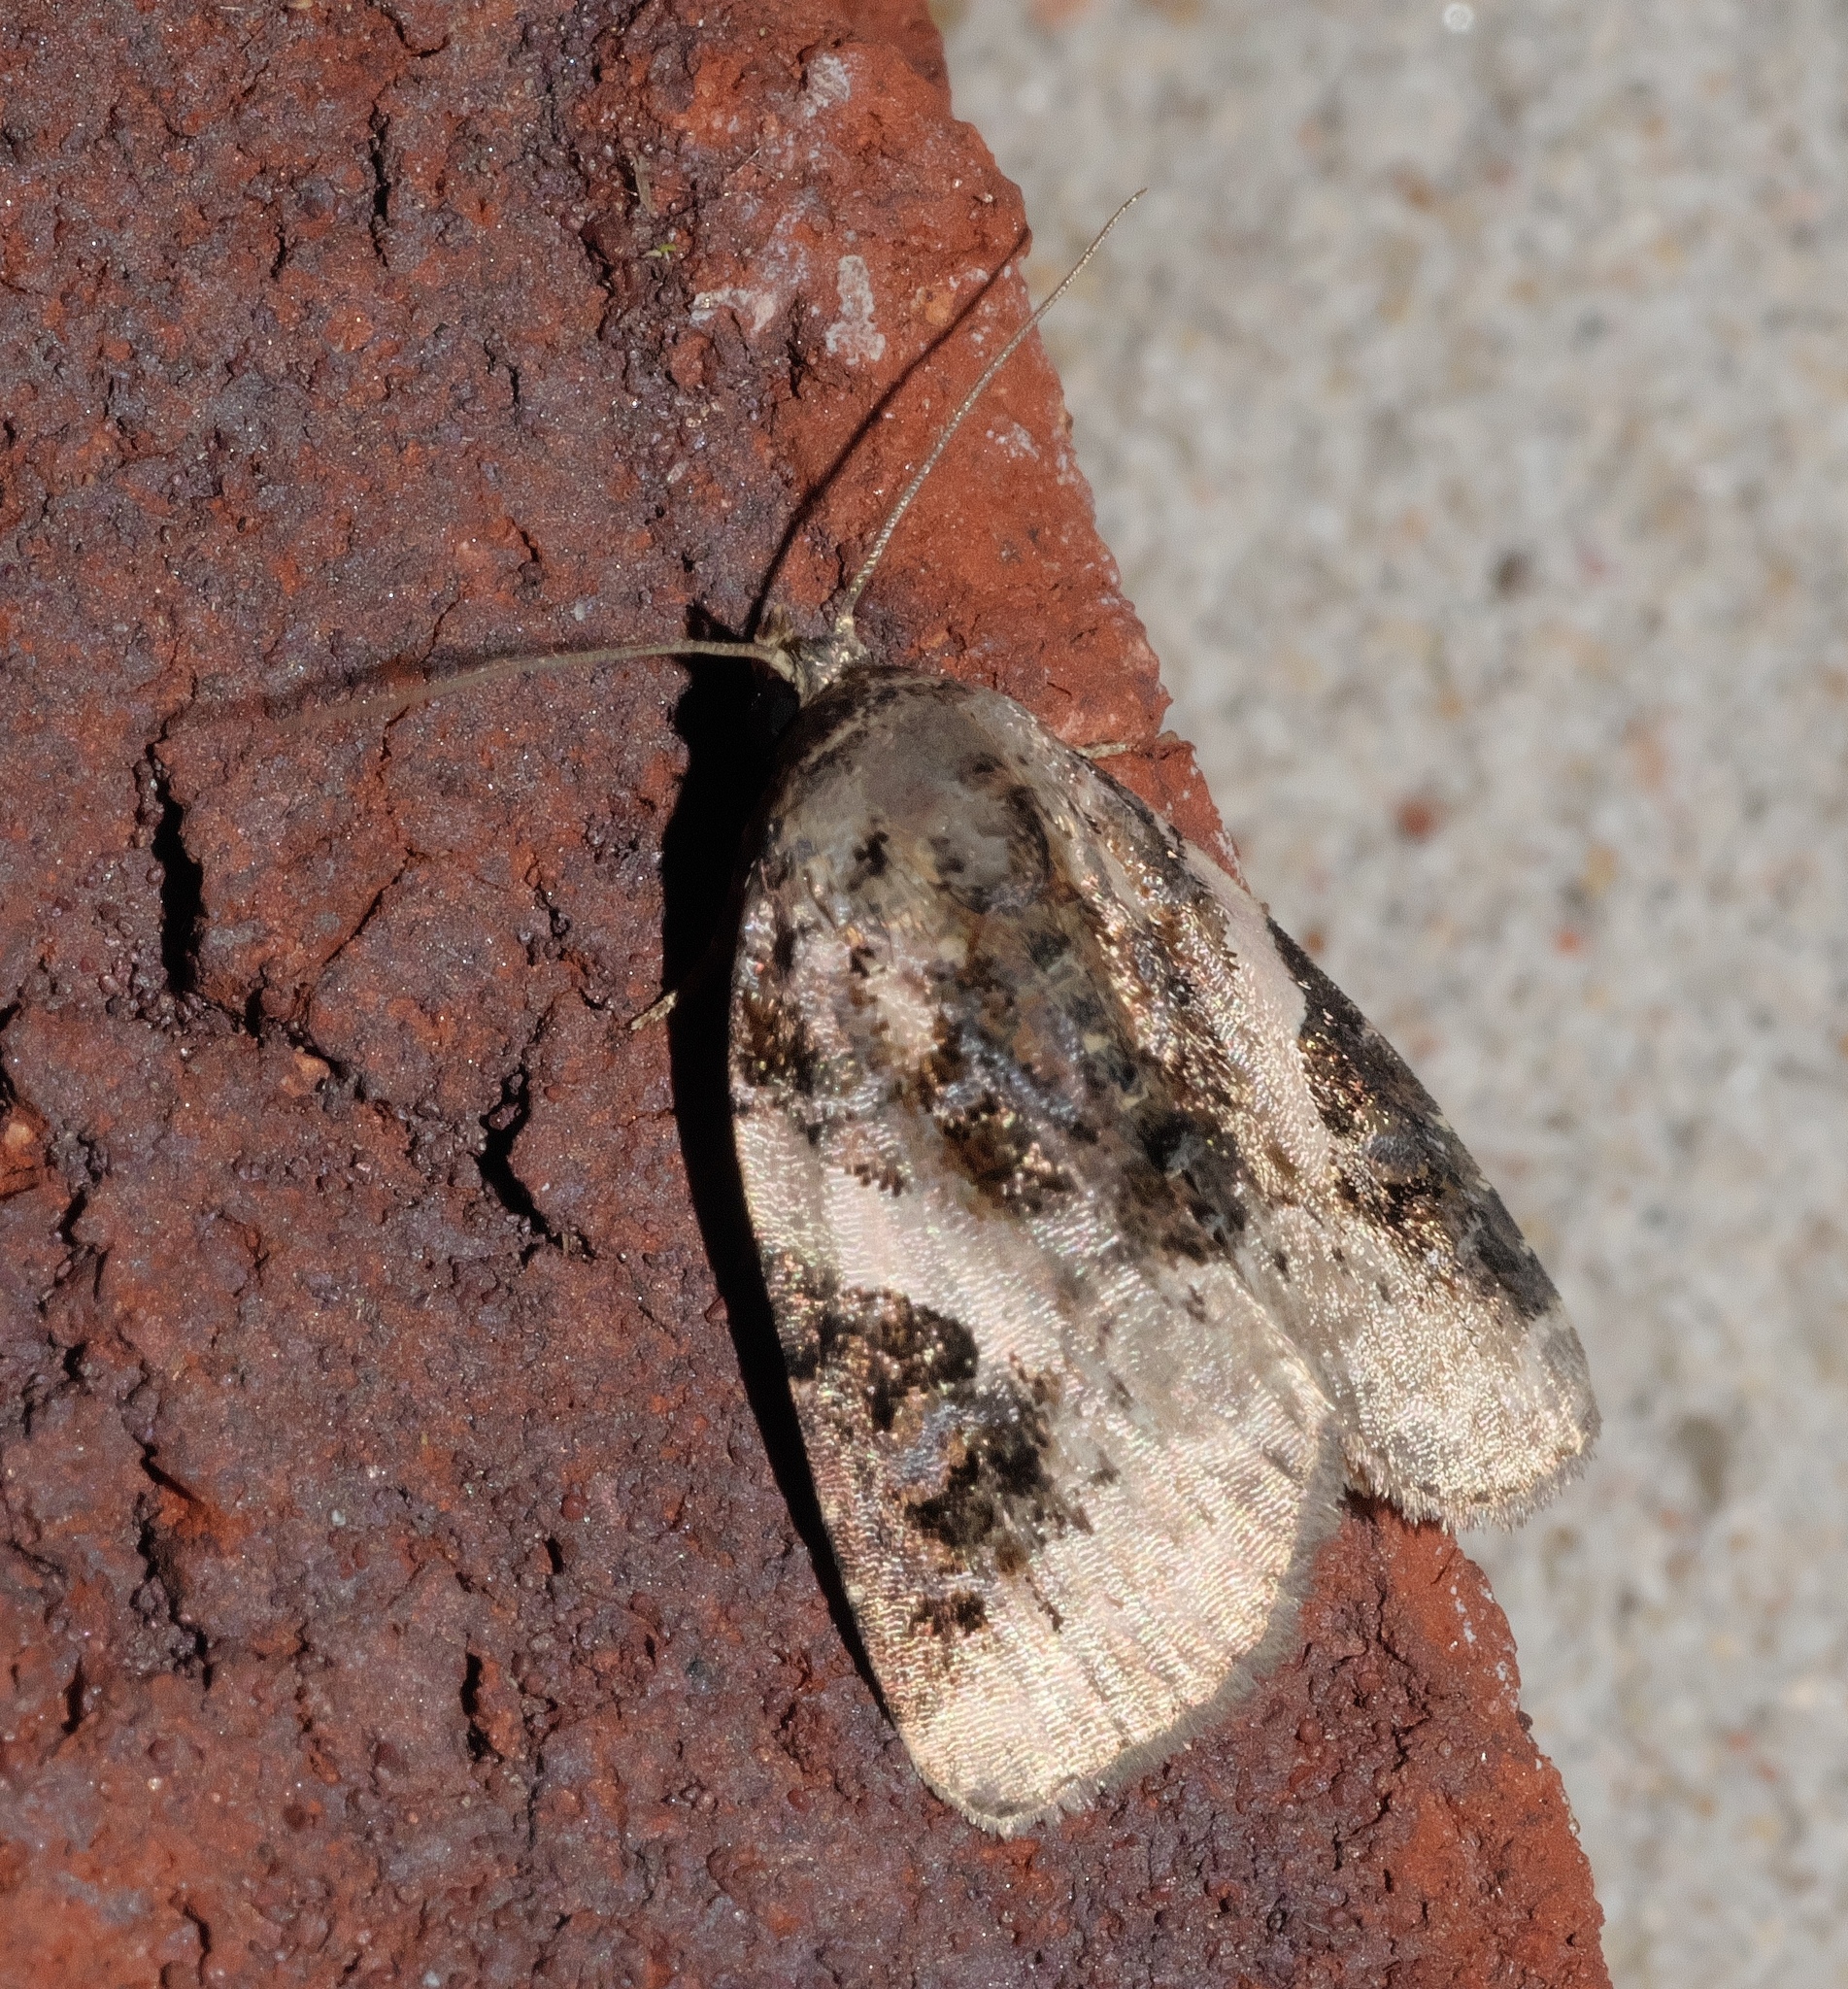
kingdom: Animalia
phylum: Arthropoda
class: Insecta
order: Lepidoptera
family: Noctuidae
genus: Pseudeustrotia
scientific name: Pseudeustrotia carneola
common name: Pink-barred lithacodia moth
